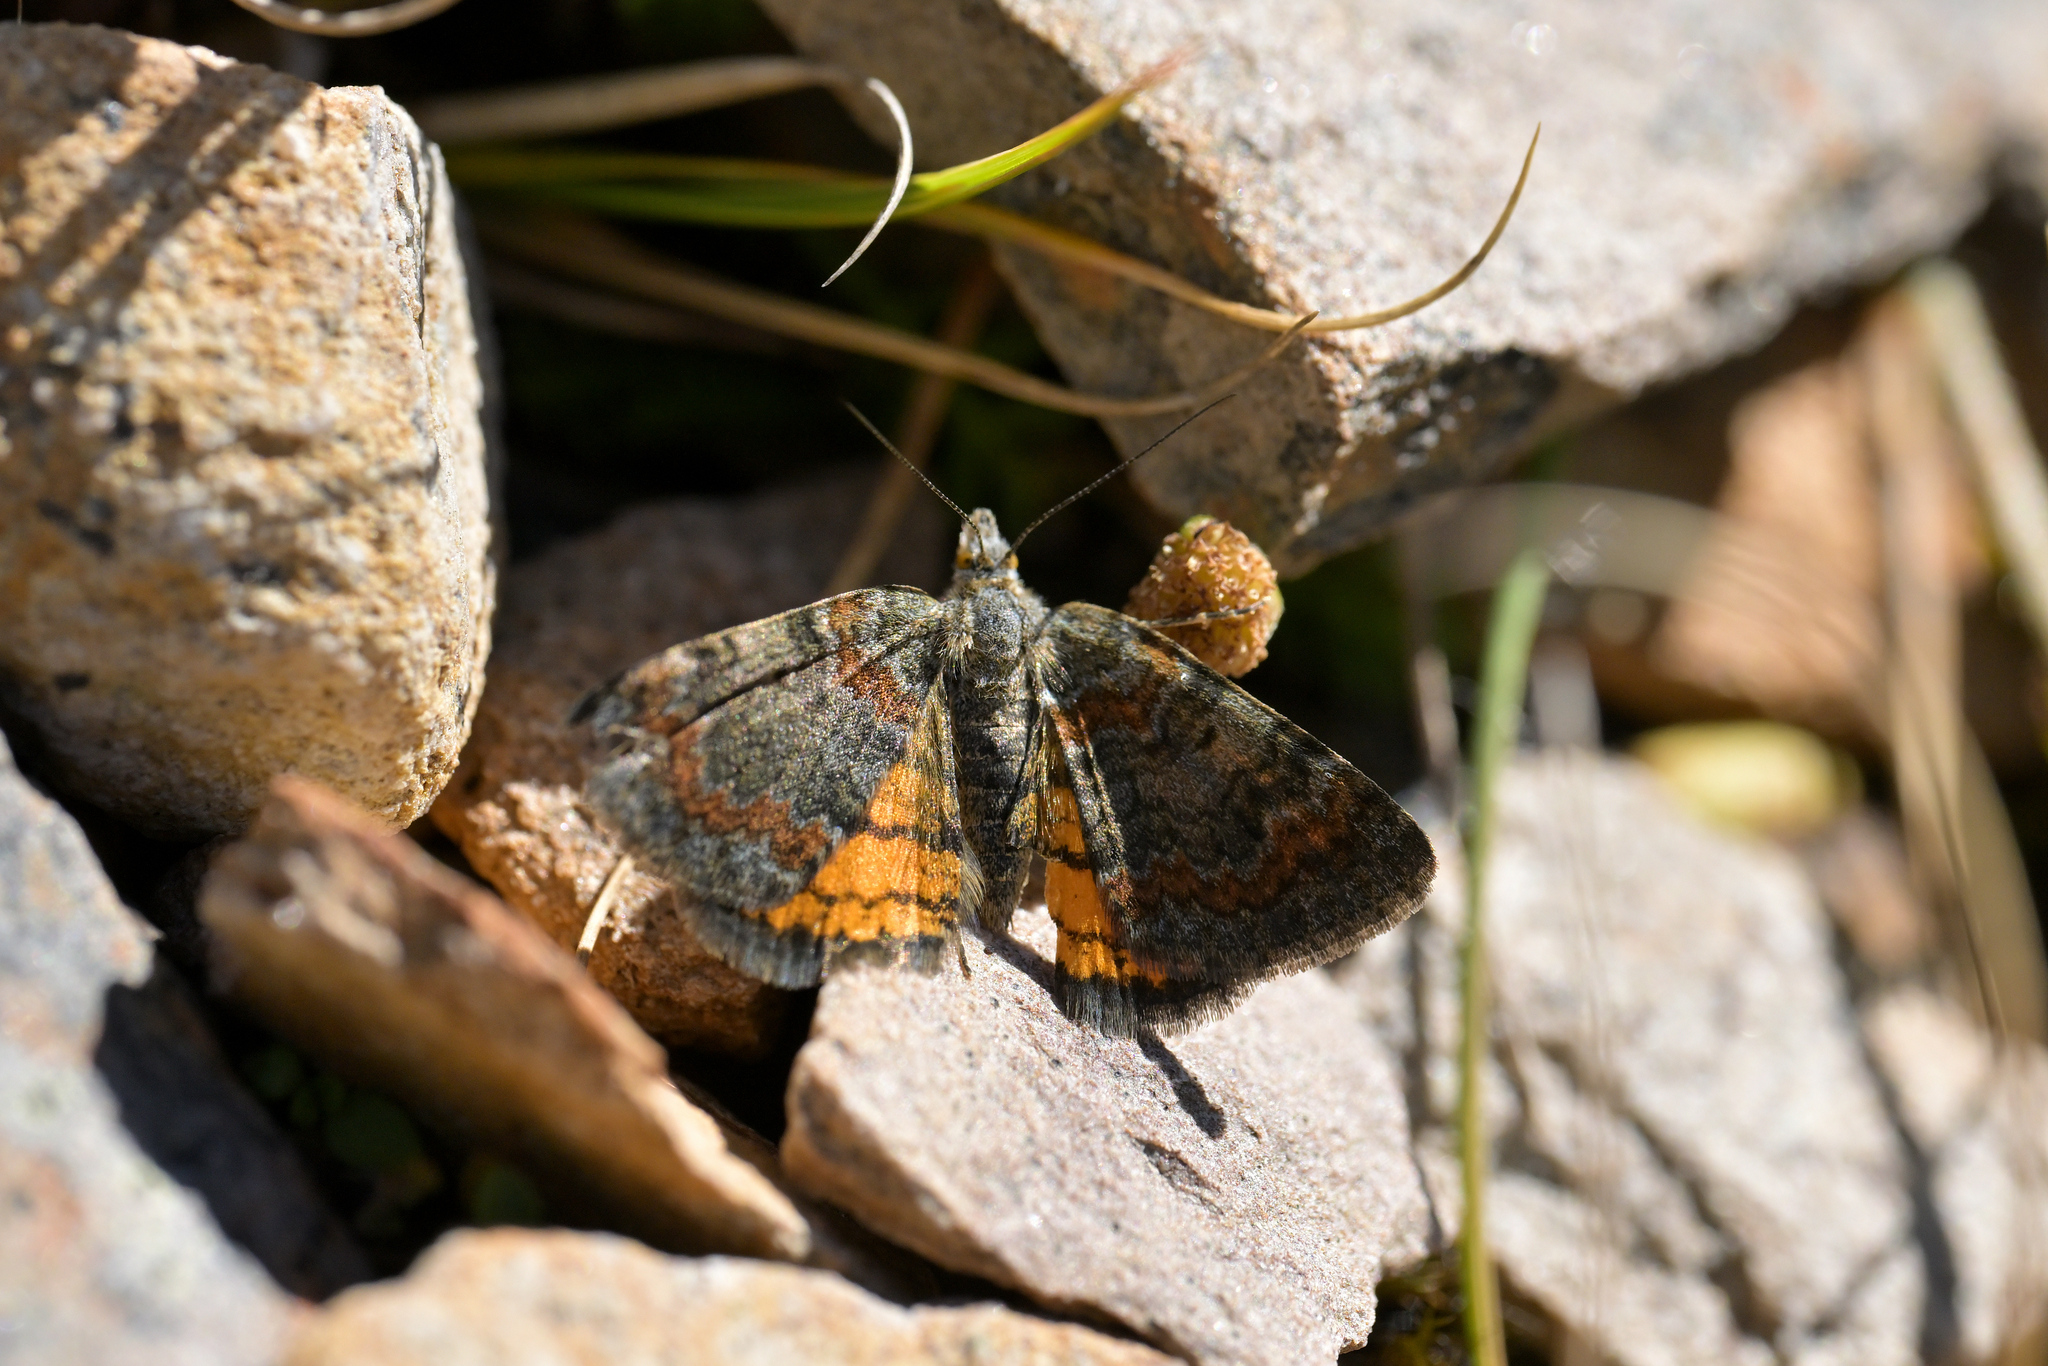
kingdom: Animalia
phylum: Arthropoda
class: Insecta
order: Lepidoptera
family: Geometridae
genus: Paranotoreas
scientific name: Paranotoreas brephosata
